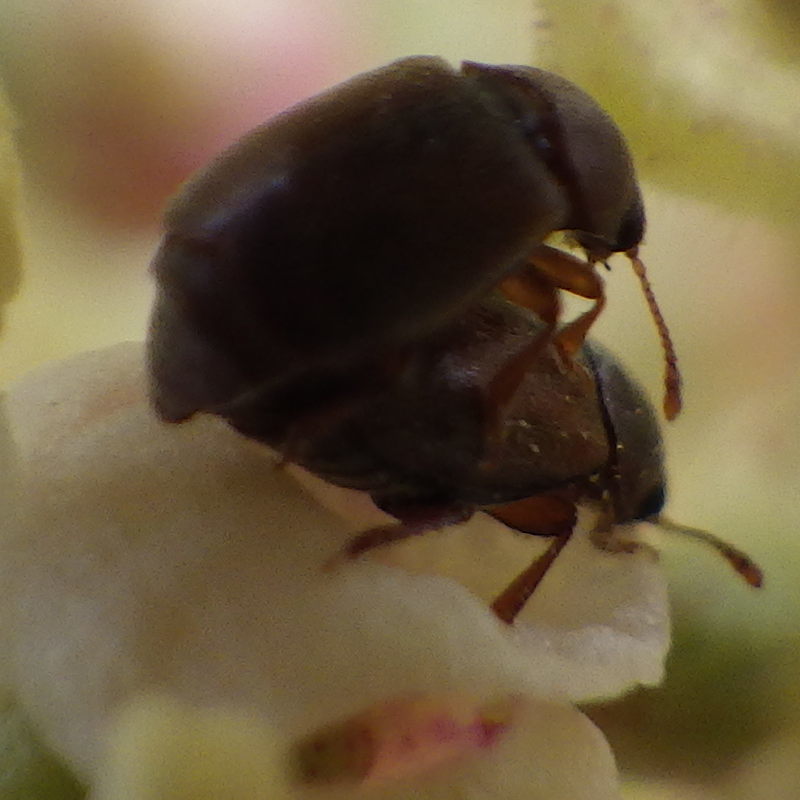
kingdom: Animalia
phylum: Arthropoda
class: Insecta
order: Coleoptera
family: Kateretidae
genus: Heterhelus
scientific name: Heterhelus sericans
